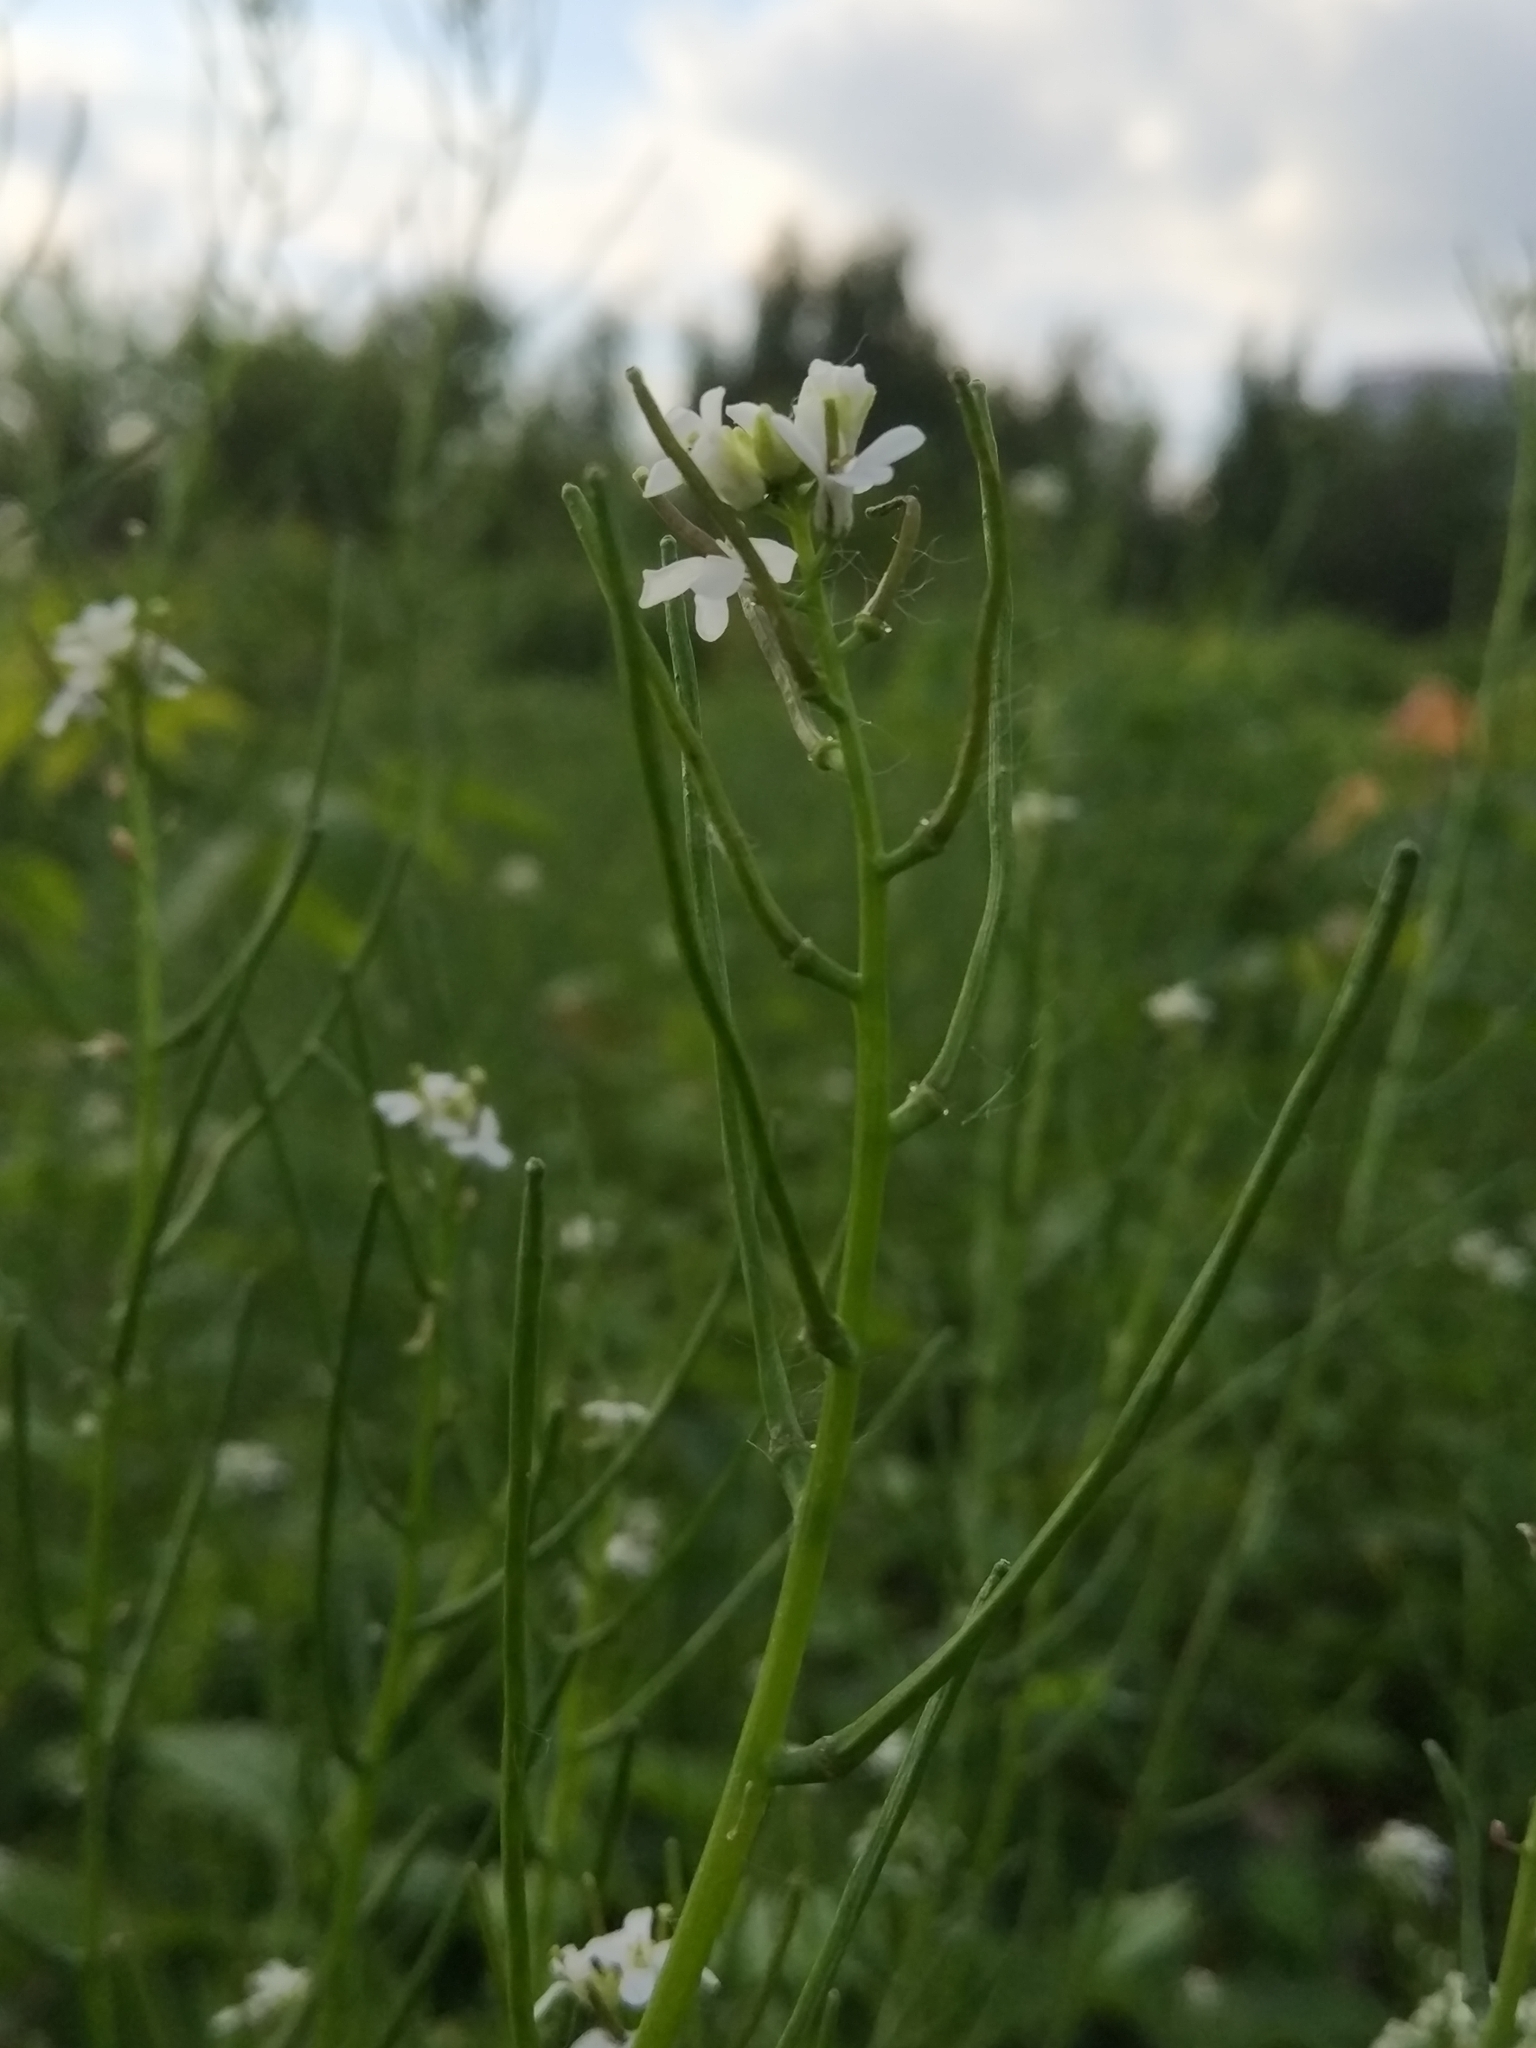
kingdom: Plantae
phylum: Tracheophyta
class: Magnoliopsida
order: Brassicales
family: Brassicaceae
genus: Alliaria
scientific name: Alliaria petiolata
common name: Garlic mustard
